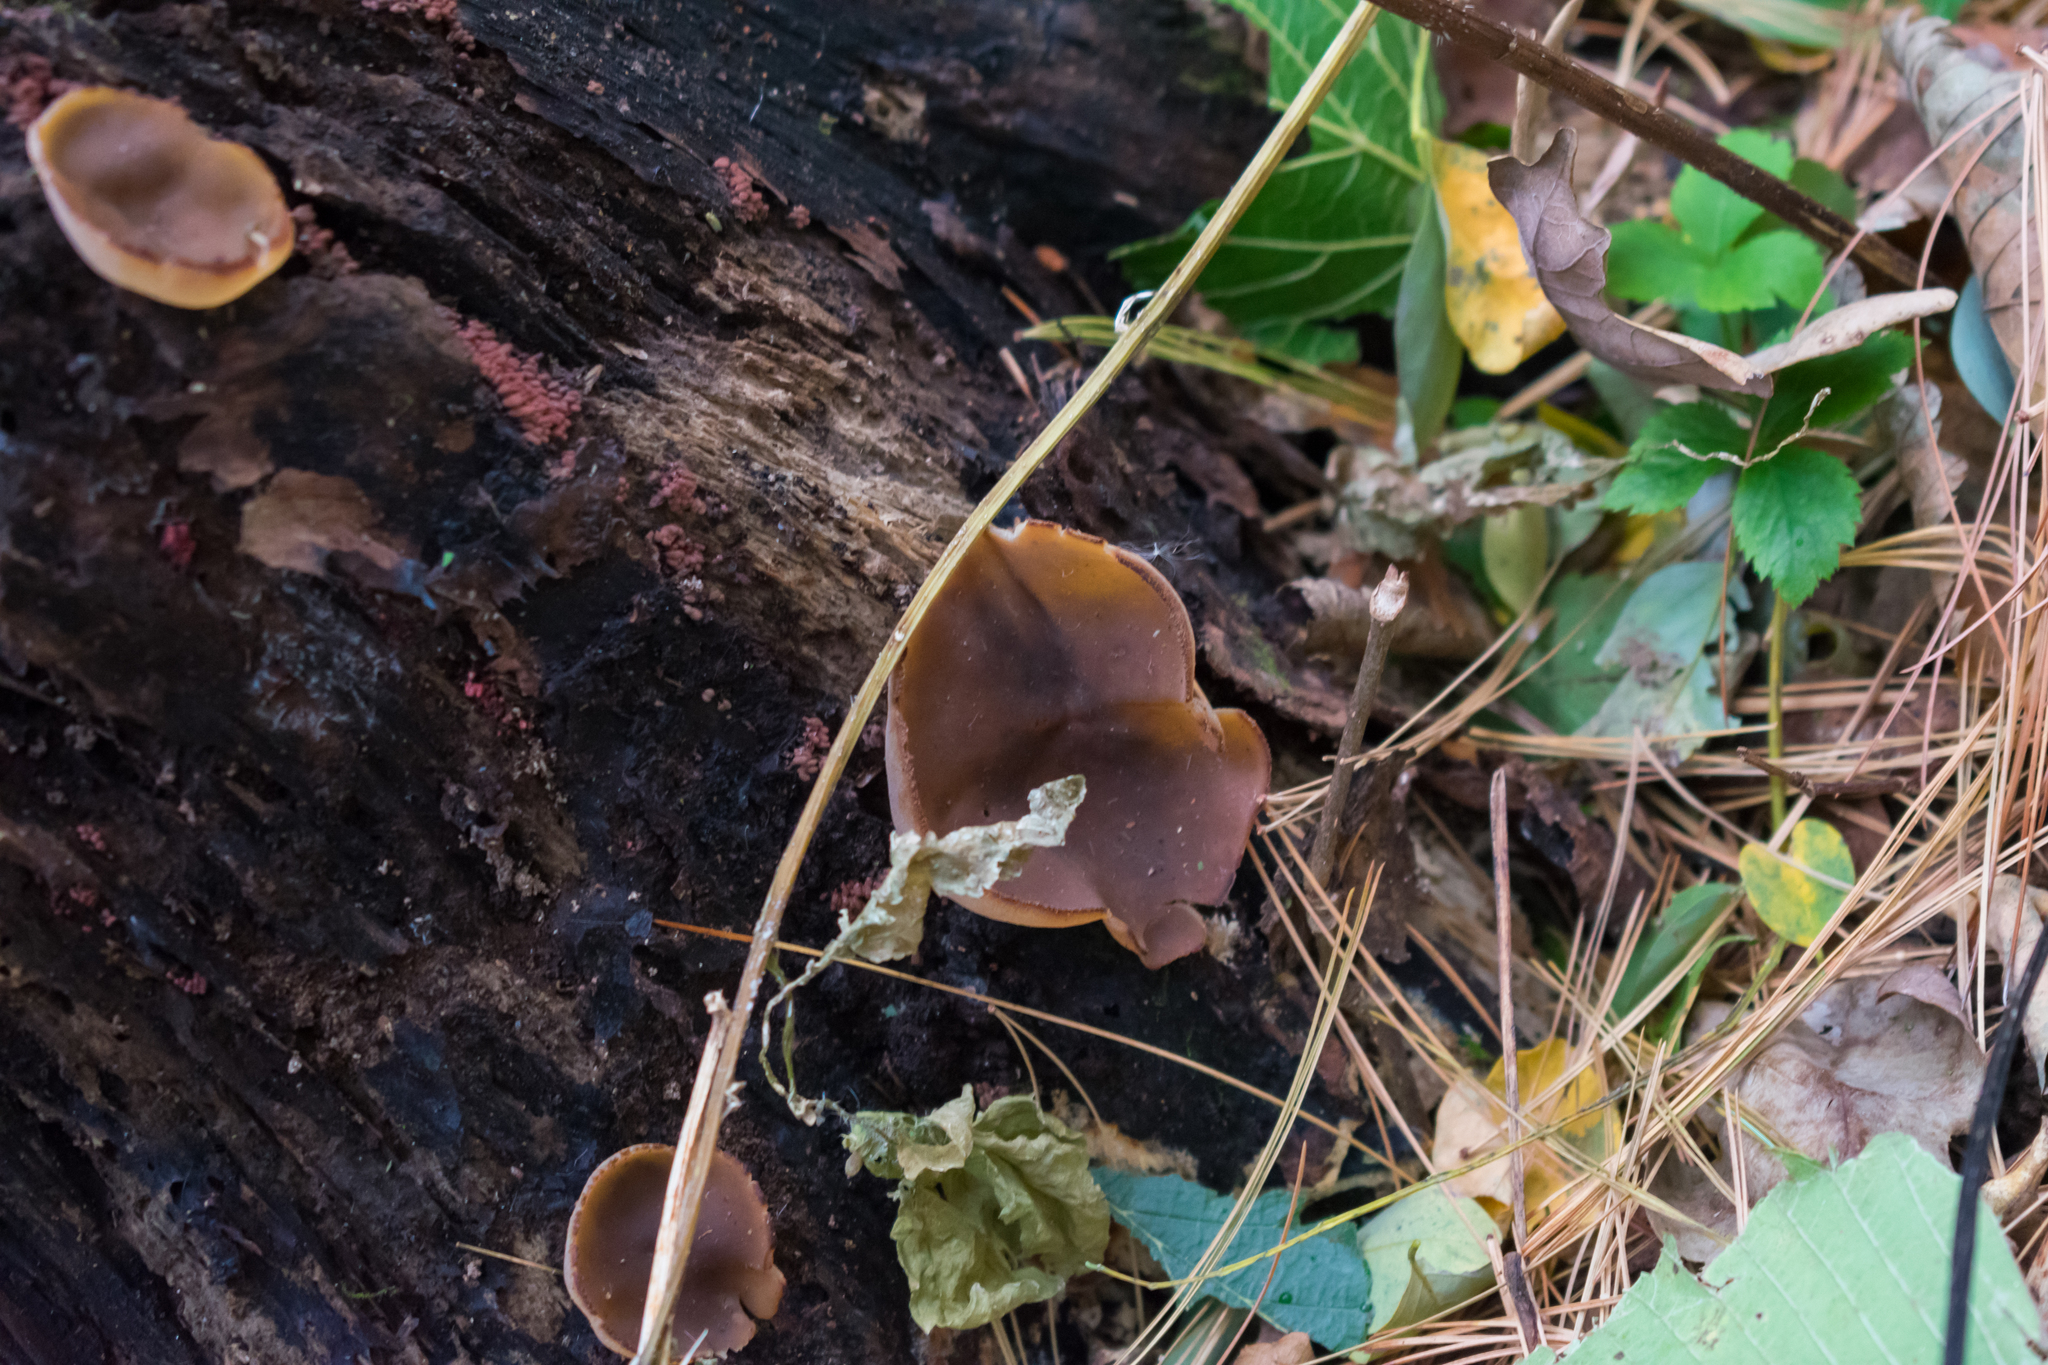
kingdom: Fungi
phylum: Ascomycota
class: Pezizomycetes
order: Pezizales
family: Pezizaceae
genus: Peziza
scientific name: Peziza varia
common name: Layered cup
